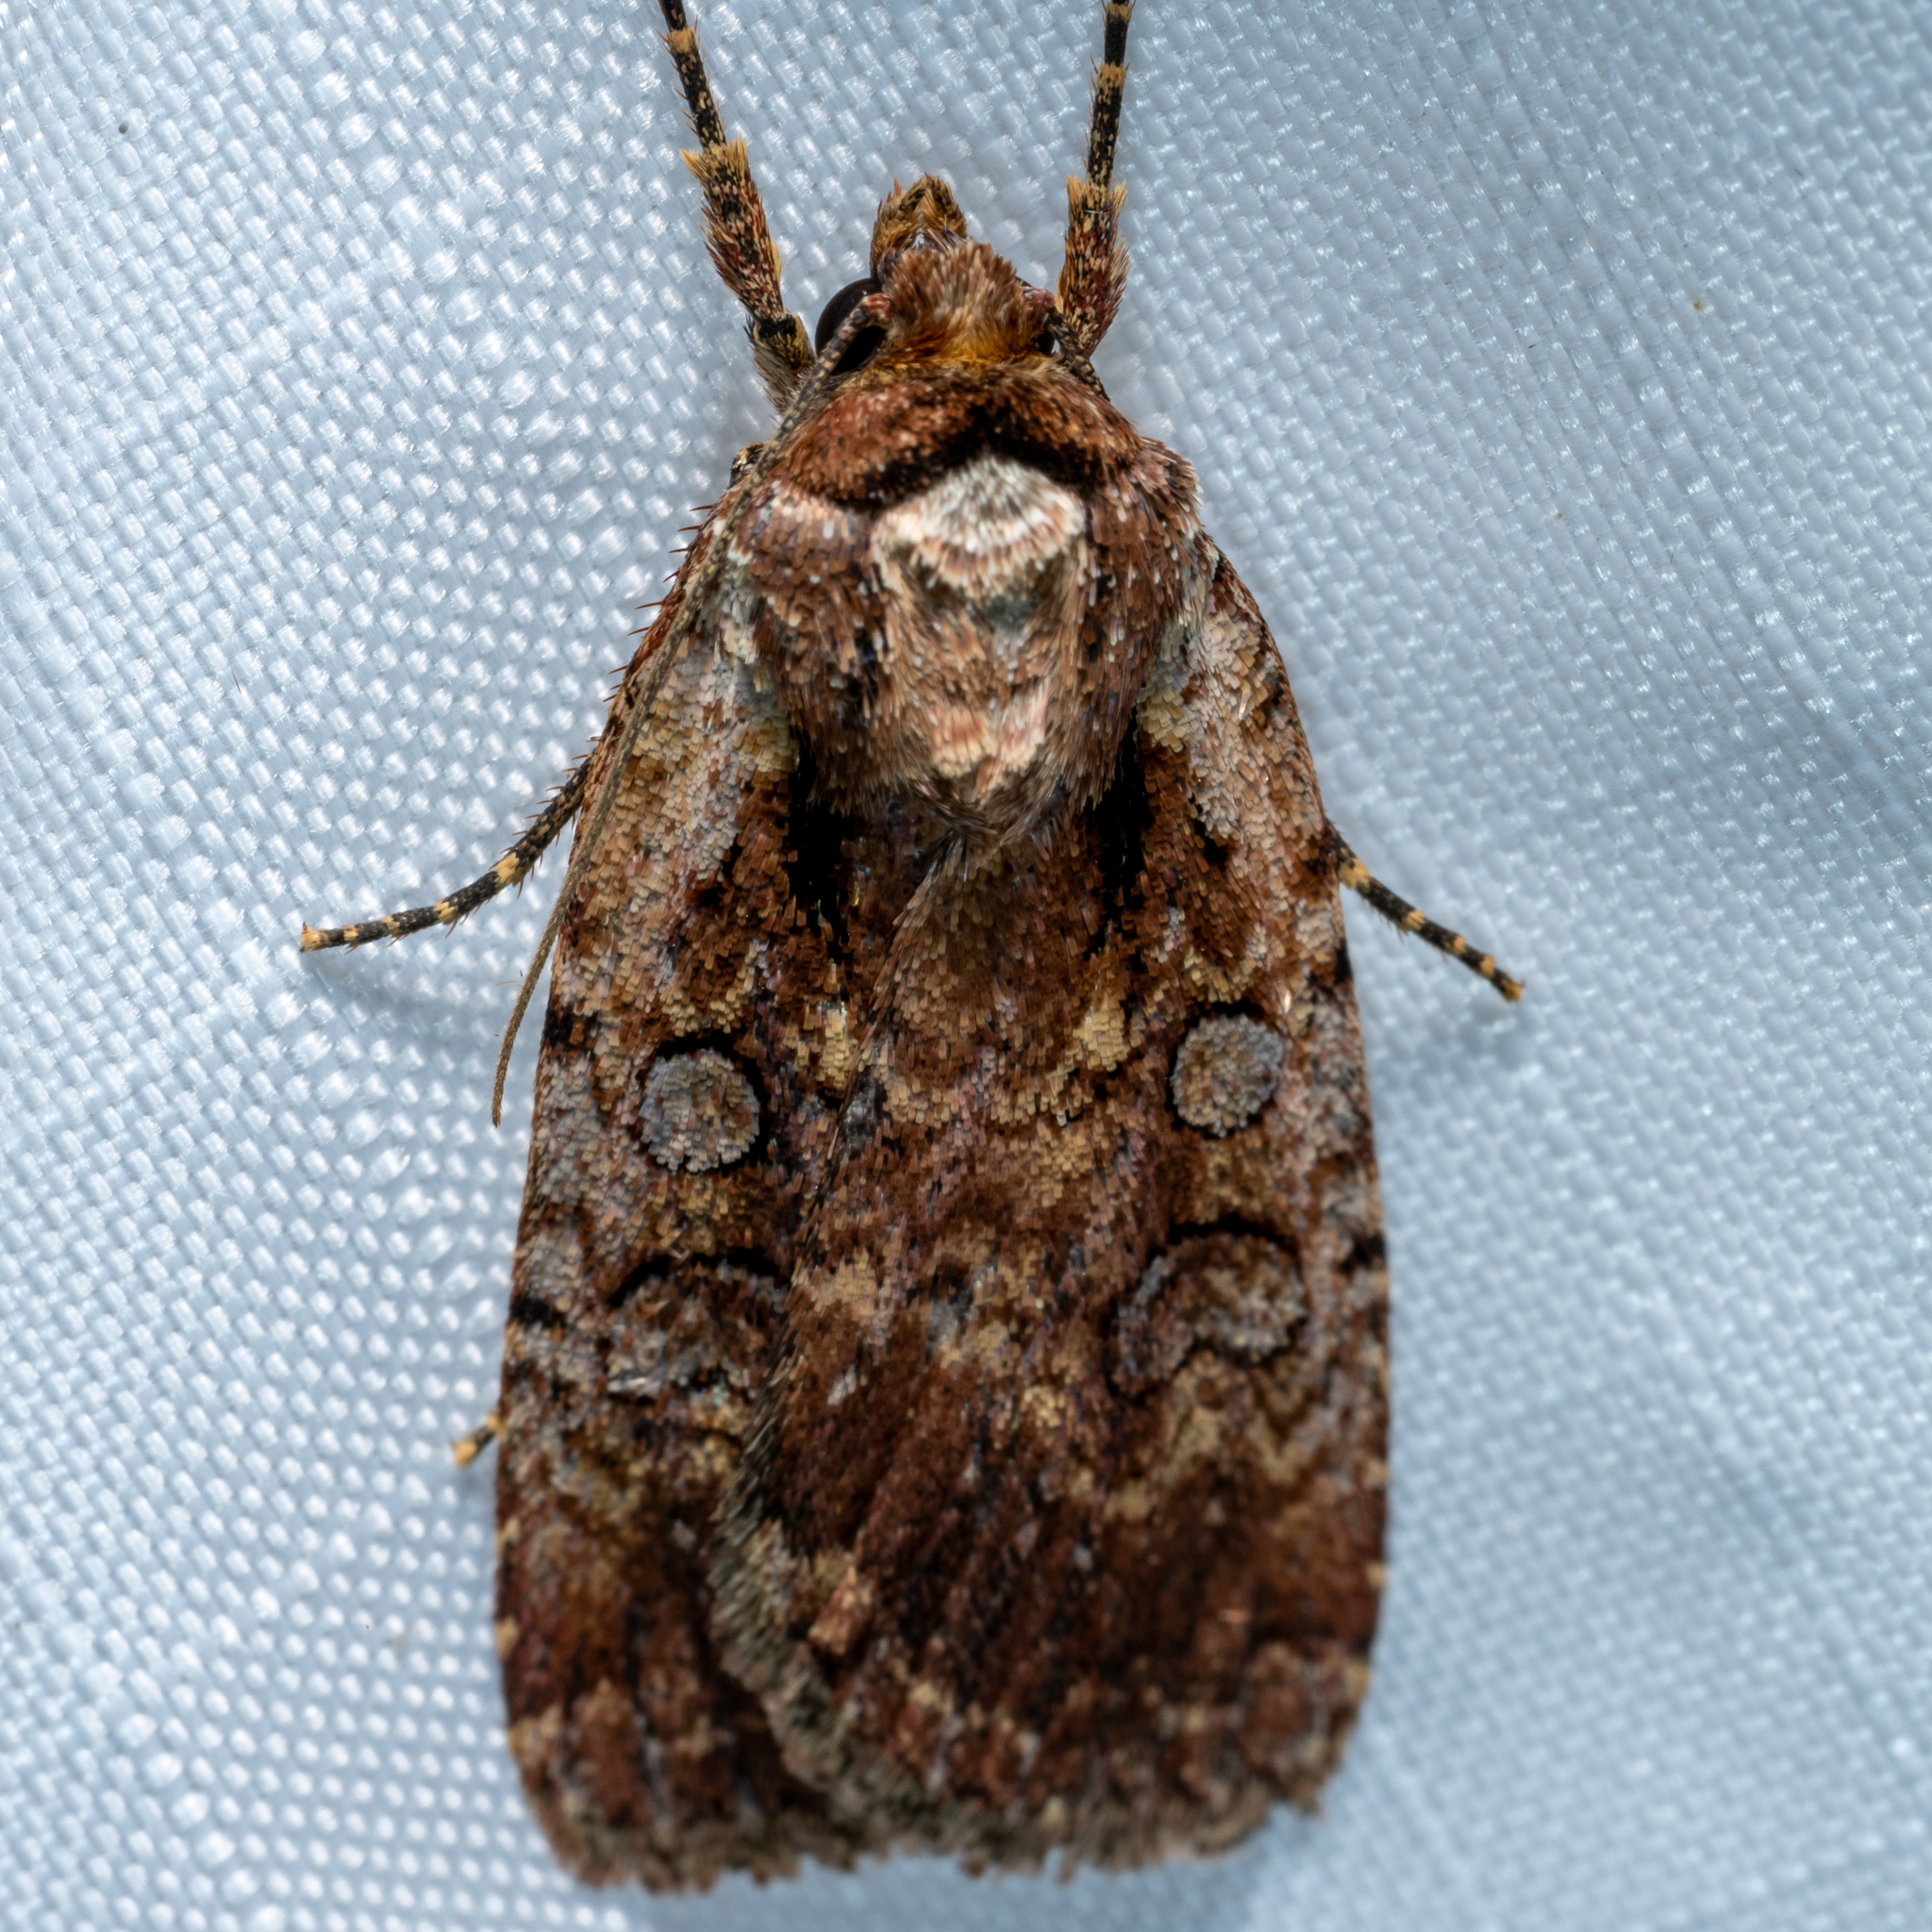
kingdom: Animalia
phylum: Arthropoda
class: Insecta
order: Lepidoptera
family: Noctuidae
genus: Eueretagrotis
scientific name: Eueretagrotis attentus
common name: Attentive dart
